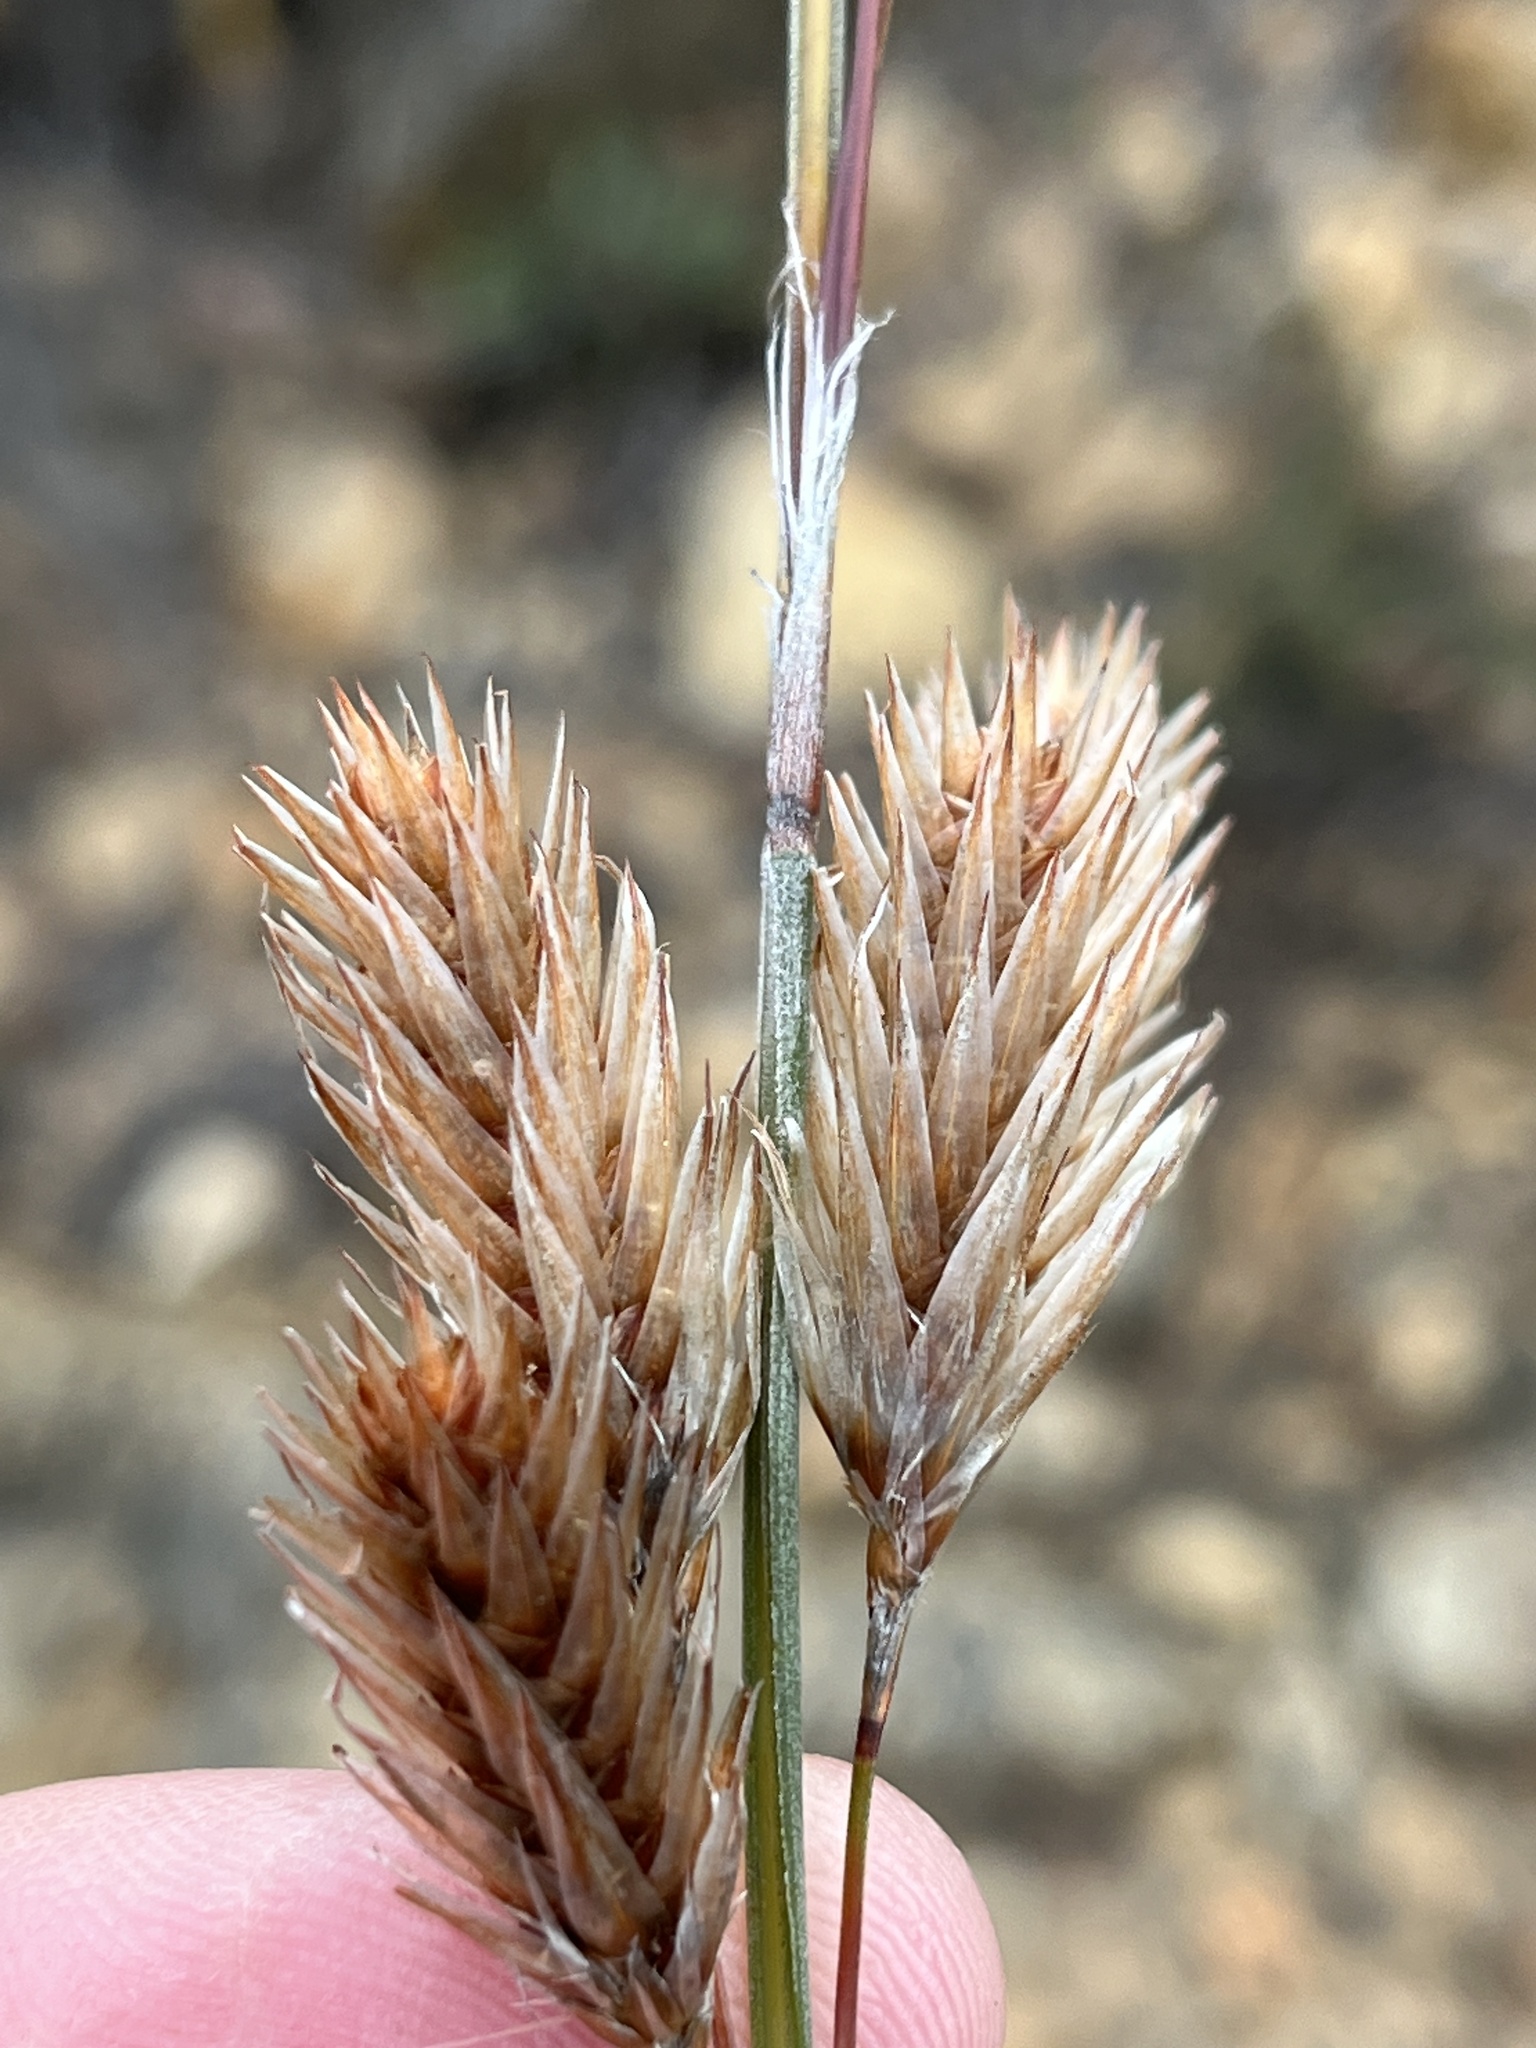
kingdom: Plantae
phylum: Tracheophyta
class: Liliopsida
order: Poales
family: Restionaceae
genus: Thamnochortus
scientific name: Thamnochortus rigidus
